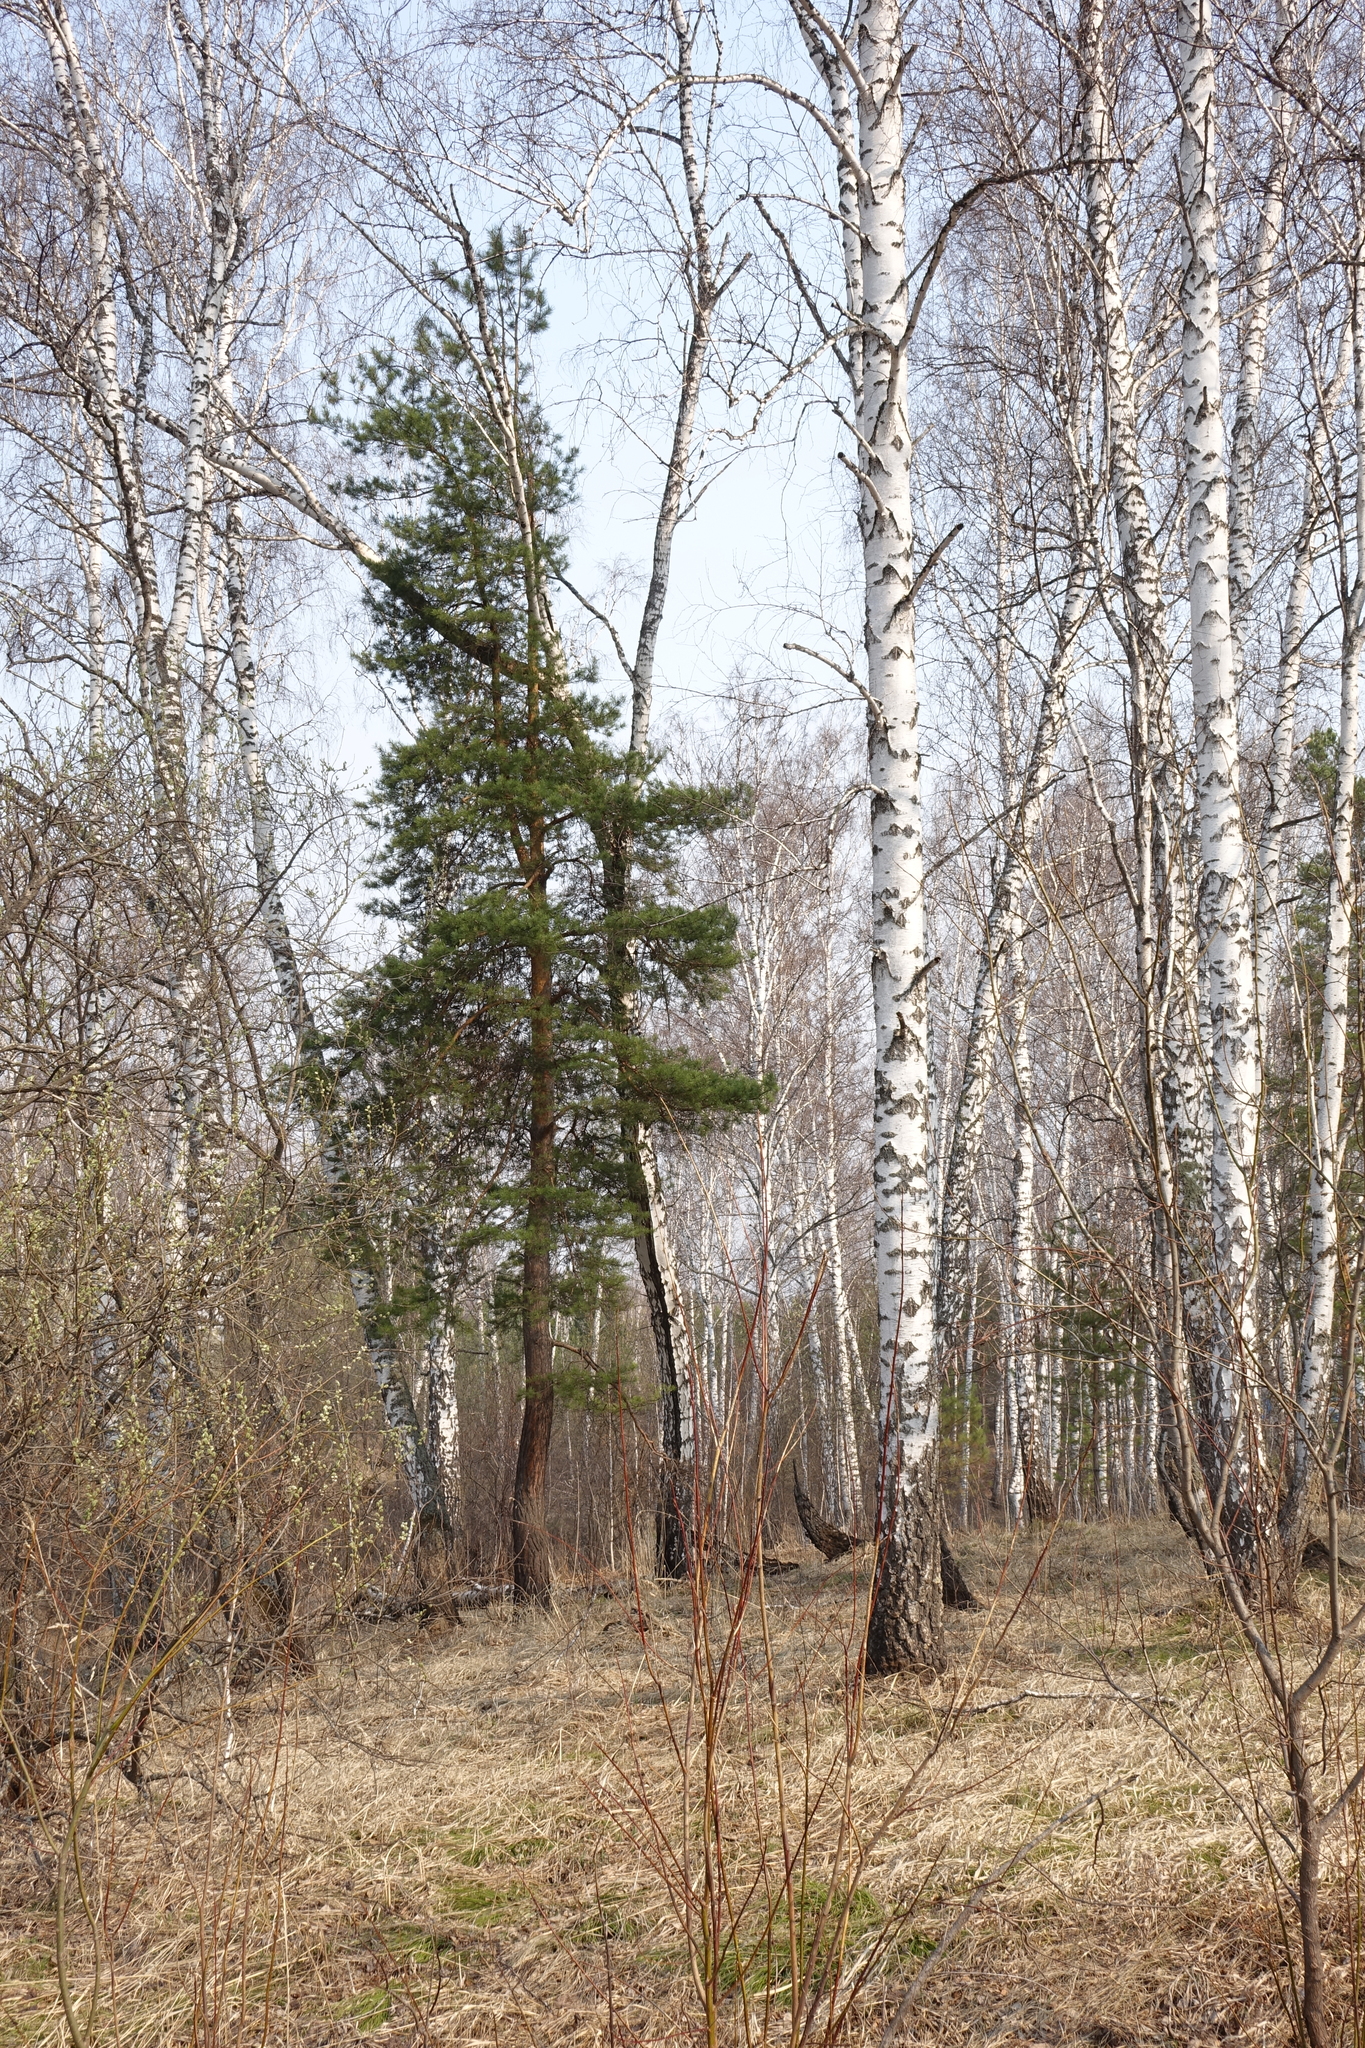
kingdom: Plantae
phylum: Tracheophyta
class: Pinopsida
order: Pinales
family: Pinaceae
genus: Pinus
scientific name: Pinus sylvestris
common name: Scots pine
